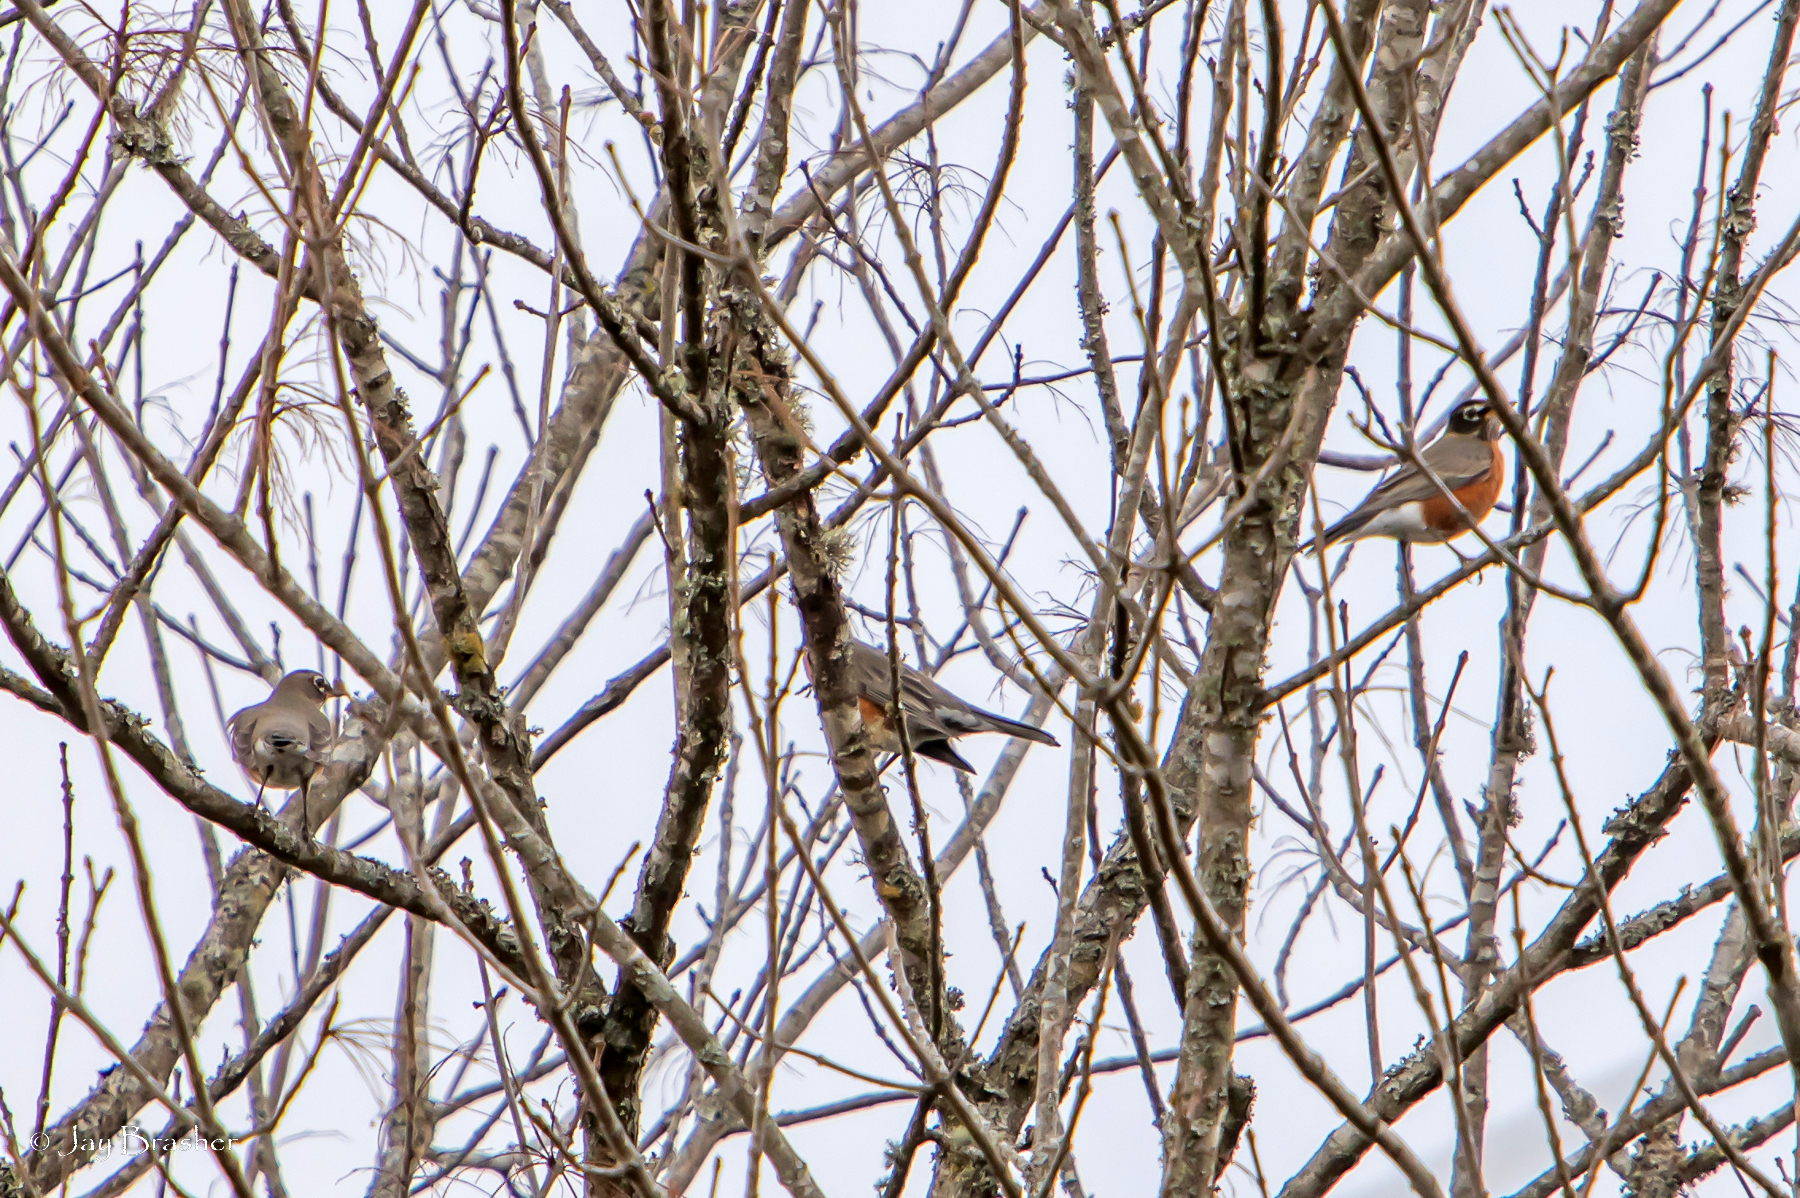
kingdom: Animalia
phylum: Chordata
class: Aves
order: Passeriformes
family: Turdidae
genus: Turdus
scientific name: Turdus migratorius
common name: American robin
